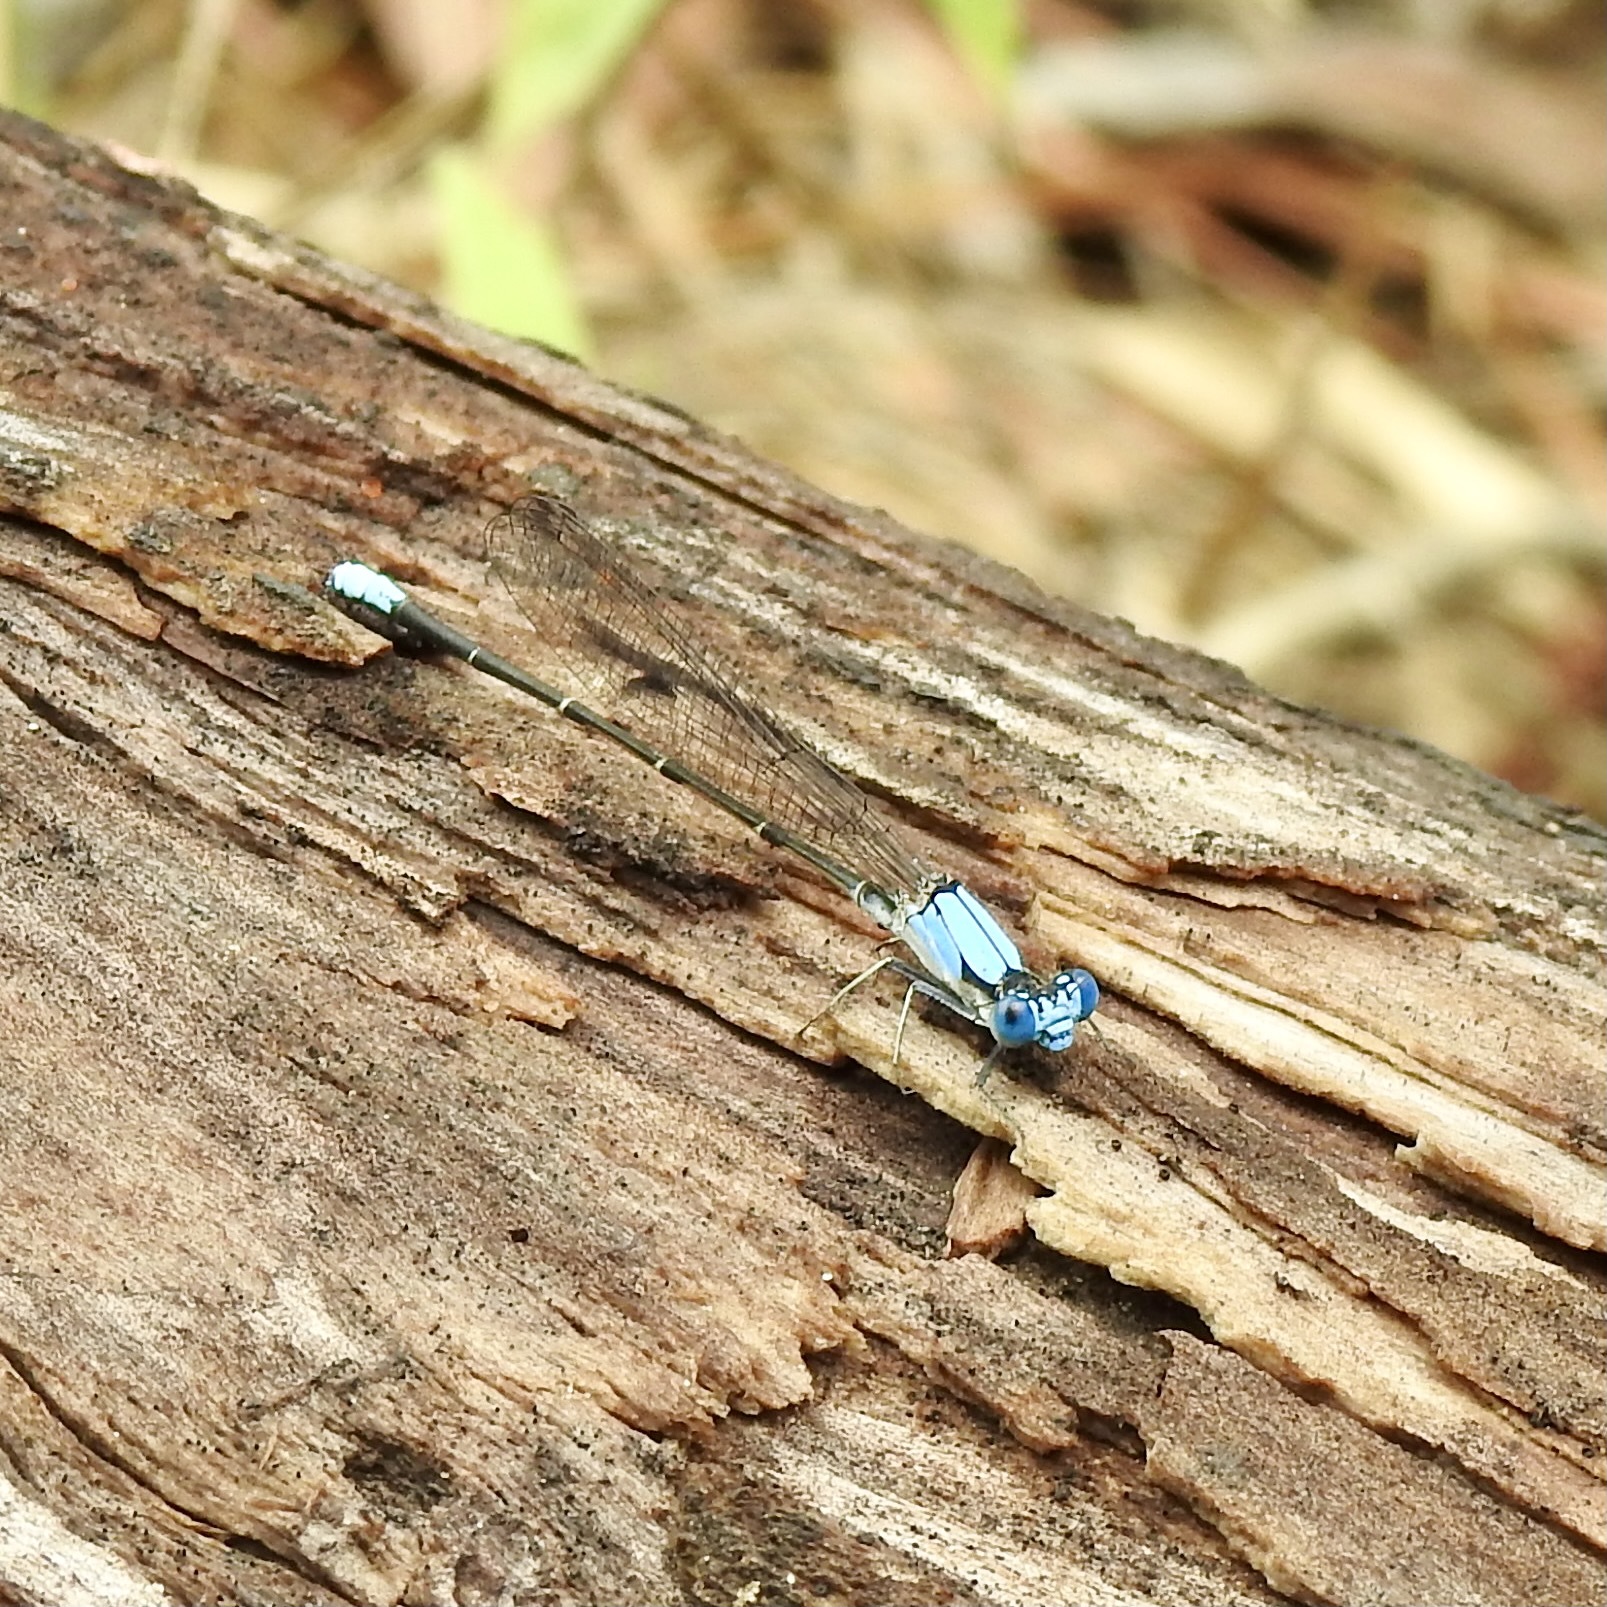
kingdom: Animalia
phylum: Arthropoda
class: Insecta
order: Odonata
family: Coenagrionidae
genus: Argia
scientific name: Argia apicalis
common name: Blue-fronted dancer
